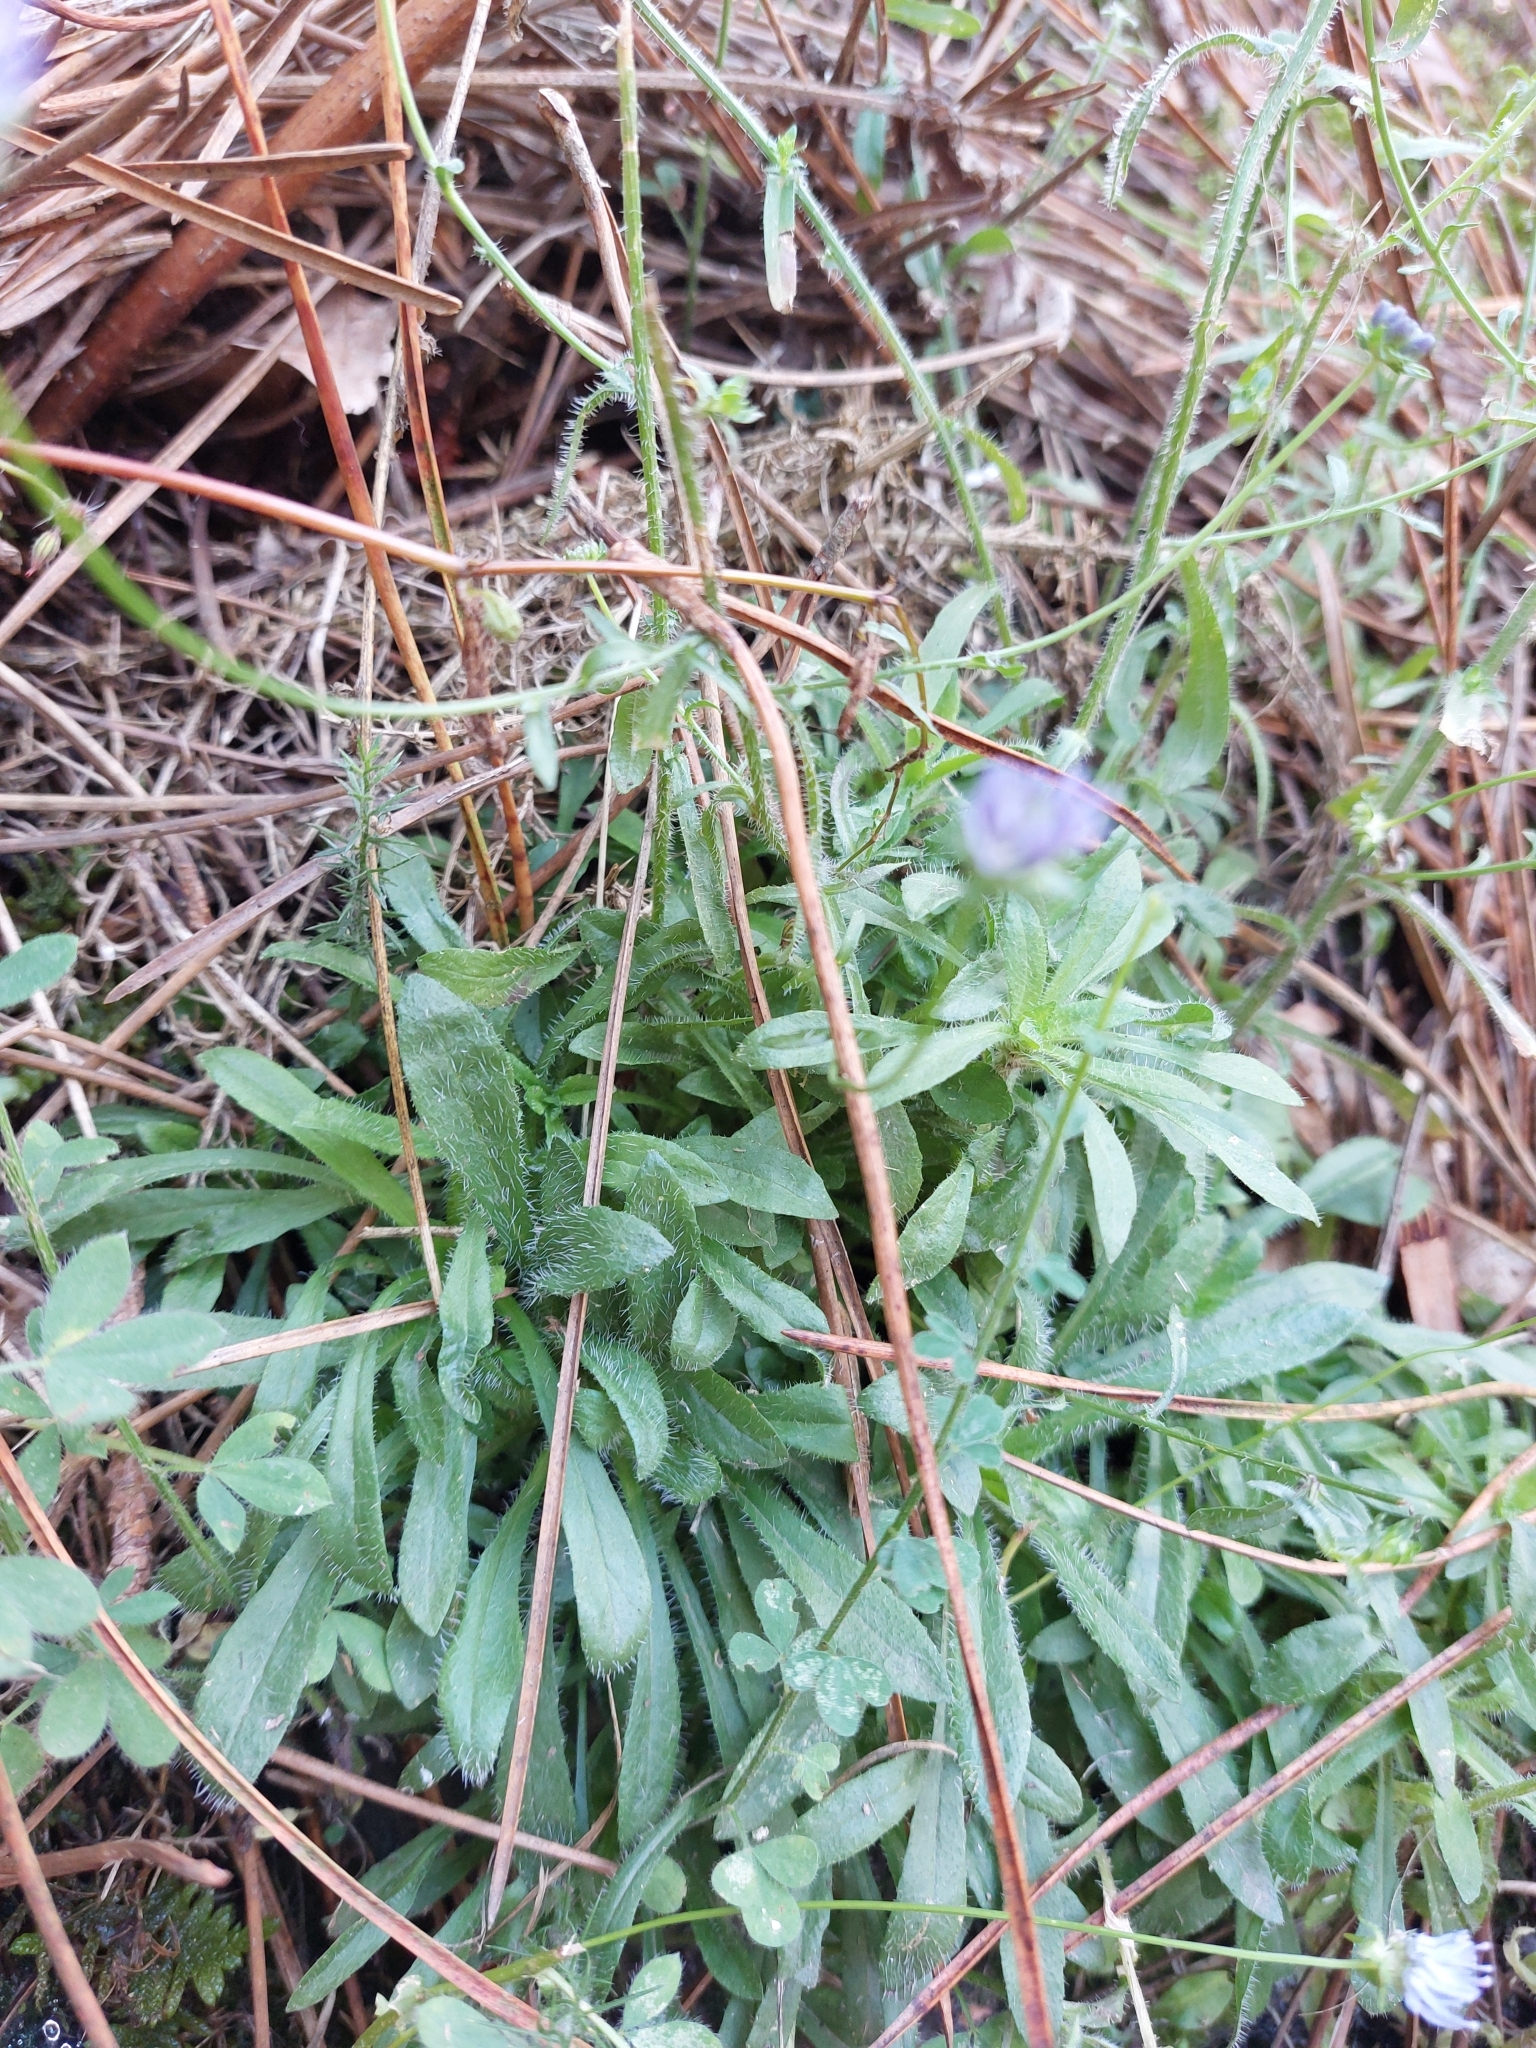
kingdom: Plantae
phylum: Tracheophyta
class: Magnoliopsida
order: Asterales
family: Campanulaceae
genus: Jasione
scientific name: Jasione montana
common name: Sheep's-bit
